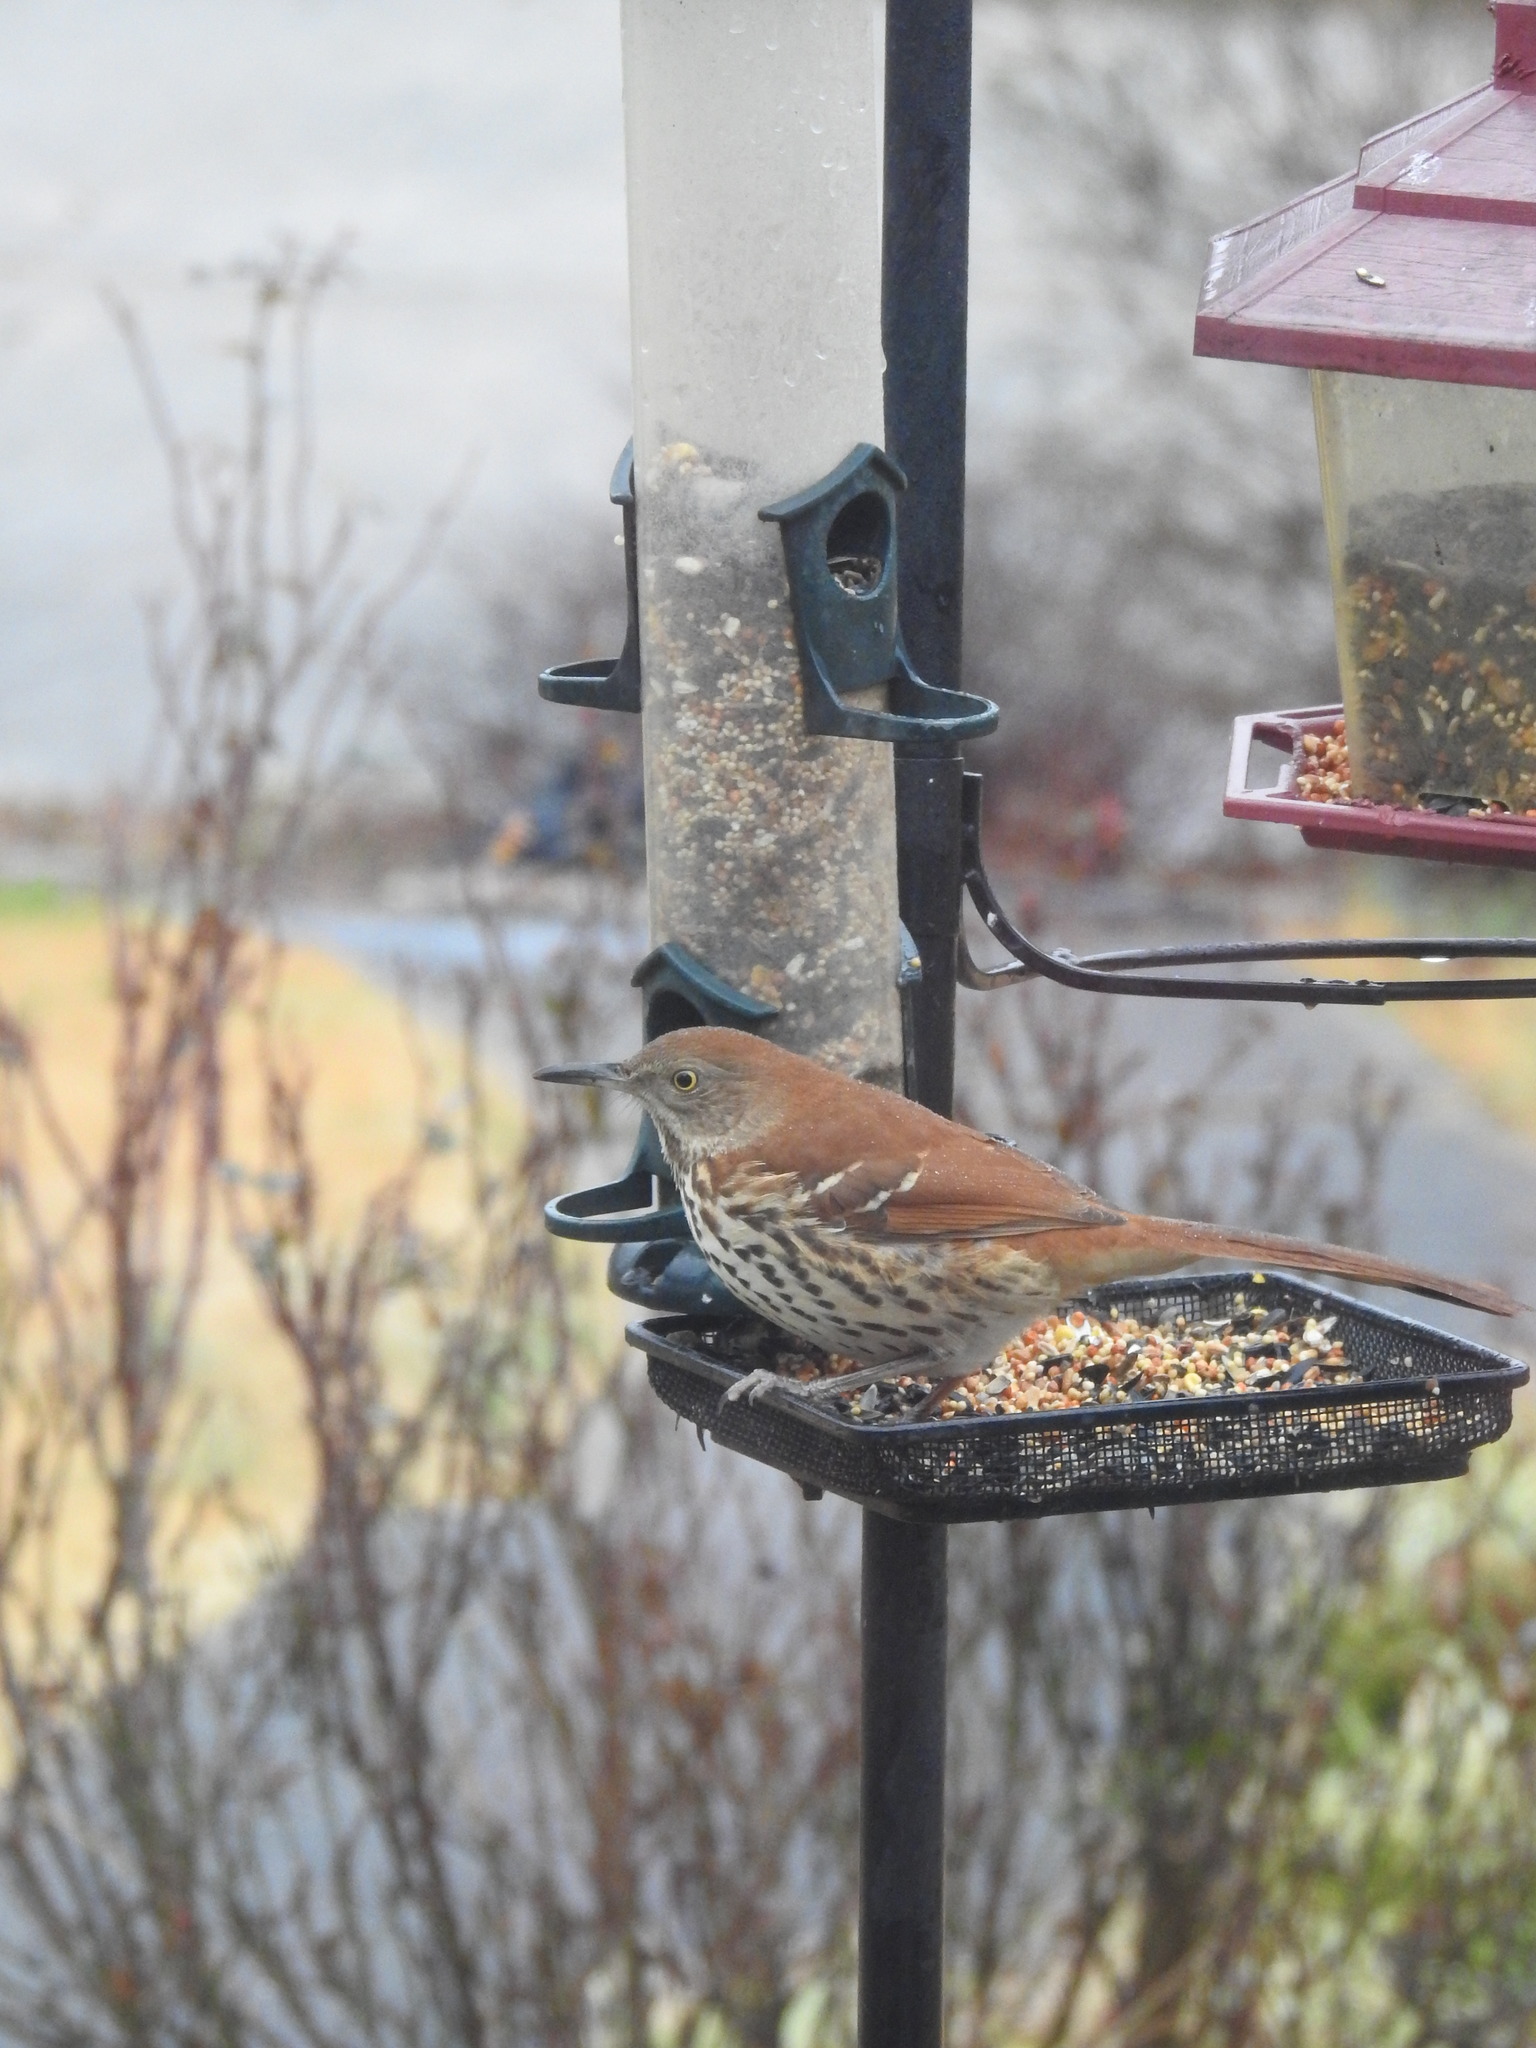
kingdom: Animalia
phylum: Chordata
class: Aves
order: Passeriformes
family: Mimidae
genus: Toxostoma
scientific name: Toxostoma rufum
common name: Brown thrasher
